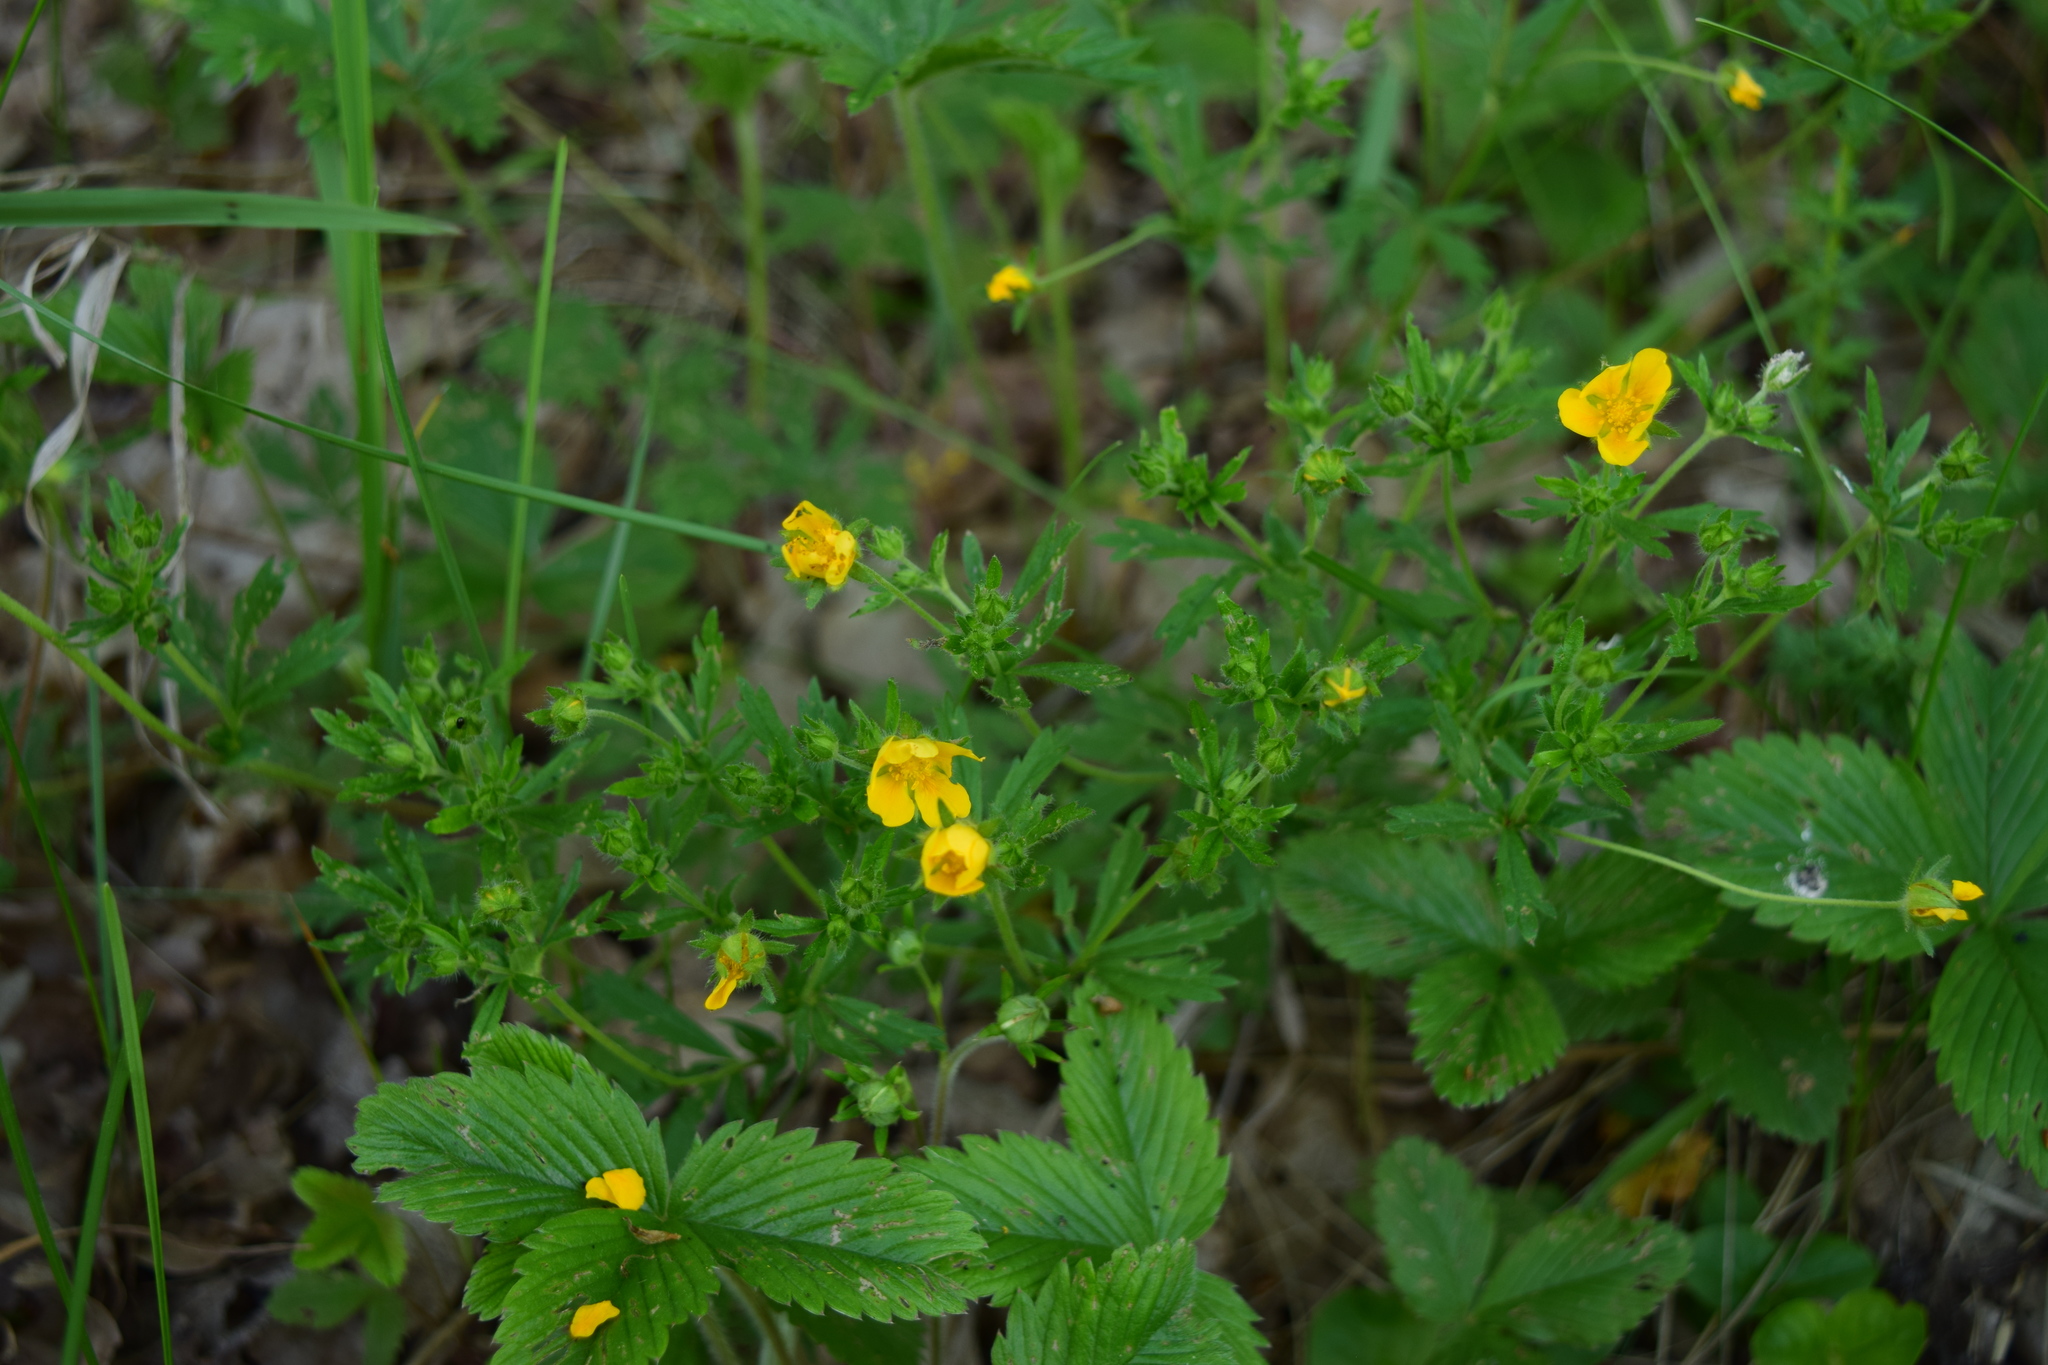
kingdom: Plantae
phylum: Tracheophyta
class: Magnoliopsida
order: Rosales
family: Rosaceae
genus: Potentilla
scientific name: Potentilla thuringiaca
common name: European cinquefoil
